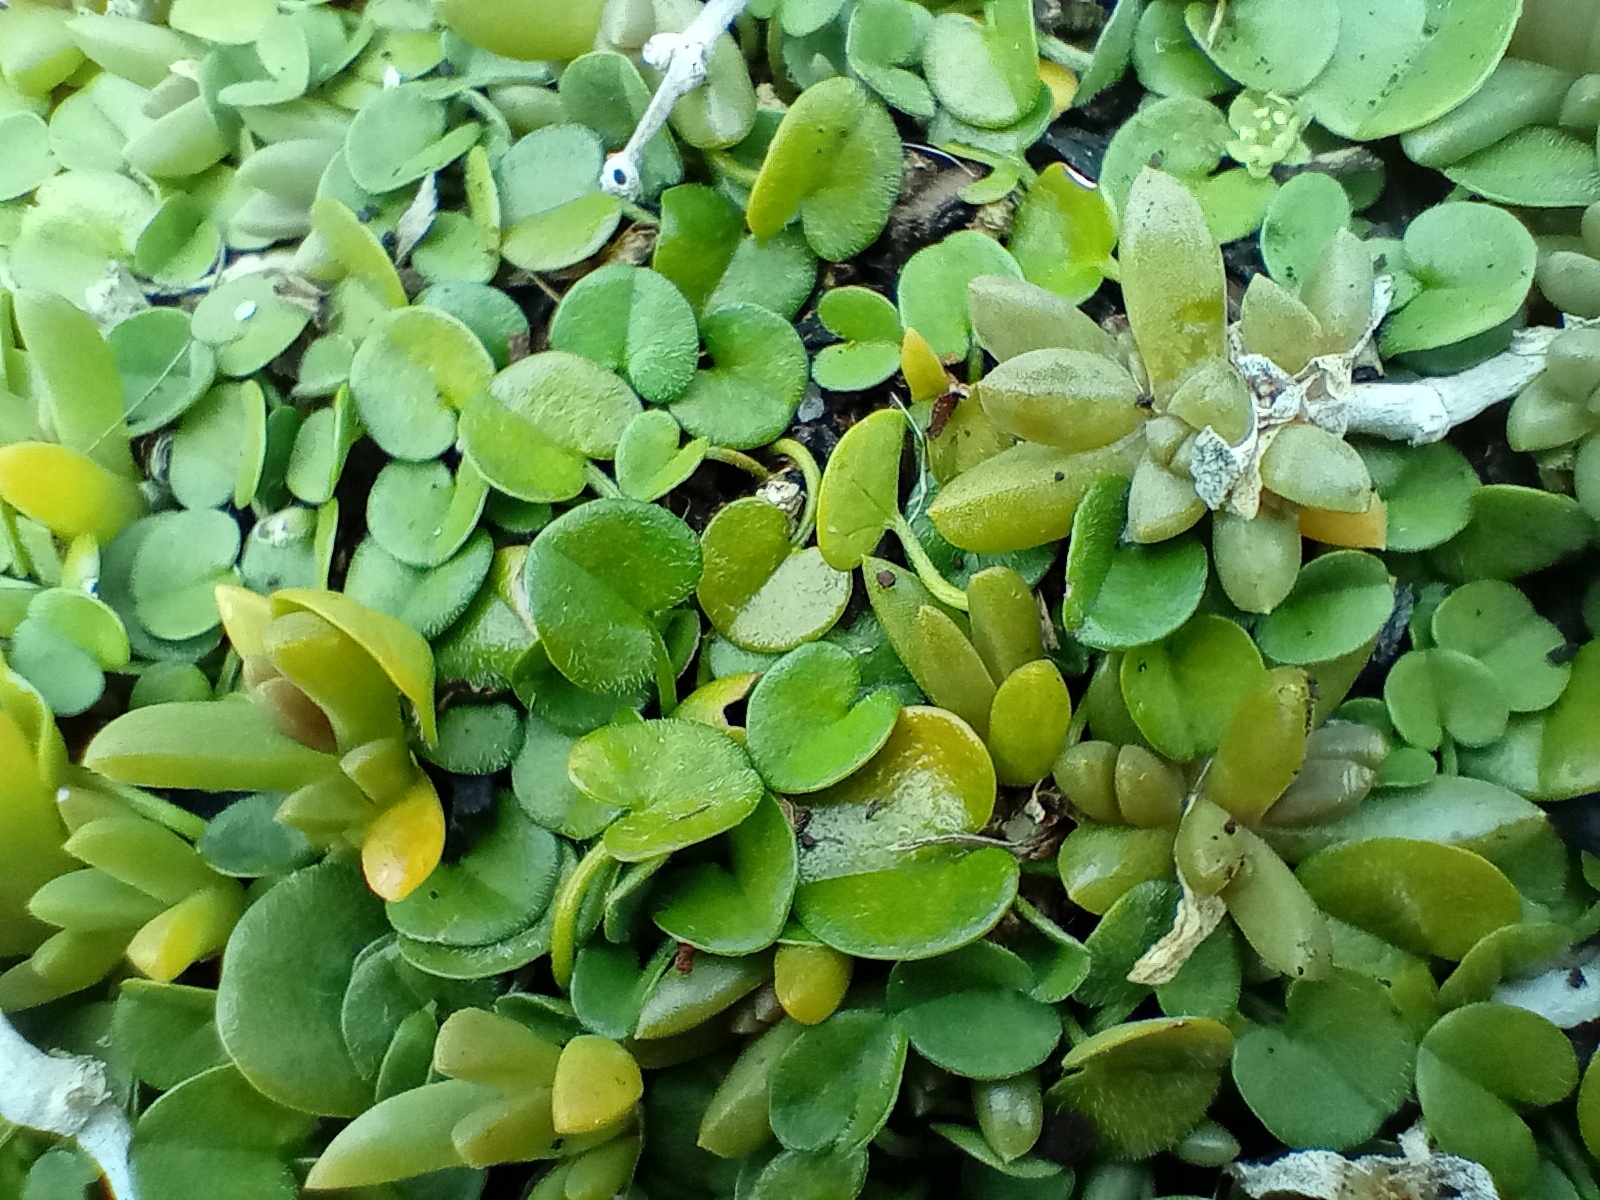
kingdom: Plantae
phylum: Tracheophyta
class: Magnoliopsida
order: Solanales
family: Convolvulaceae
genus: Dichondra
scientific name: Dichondra brevifolia
